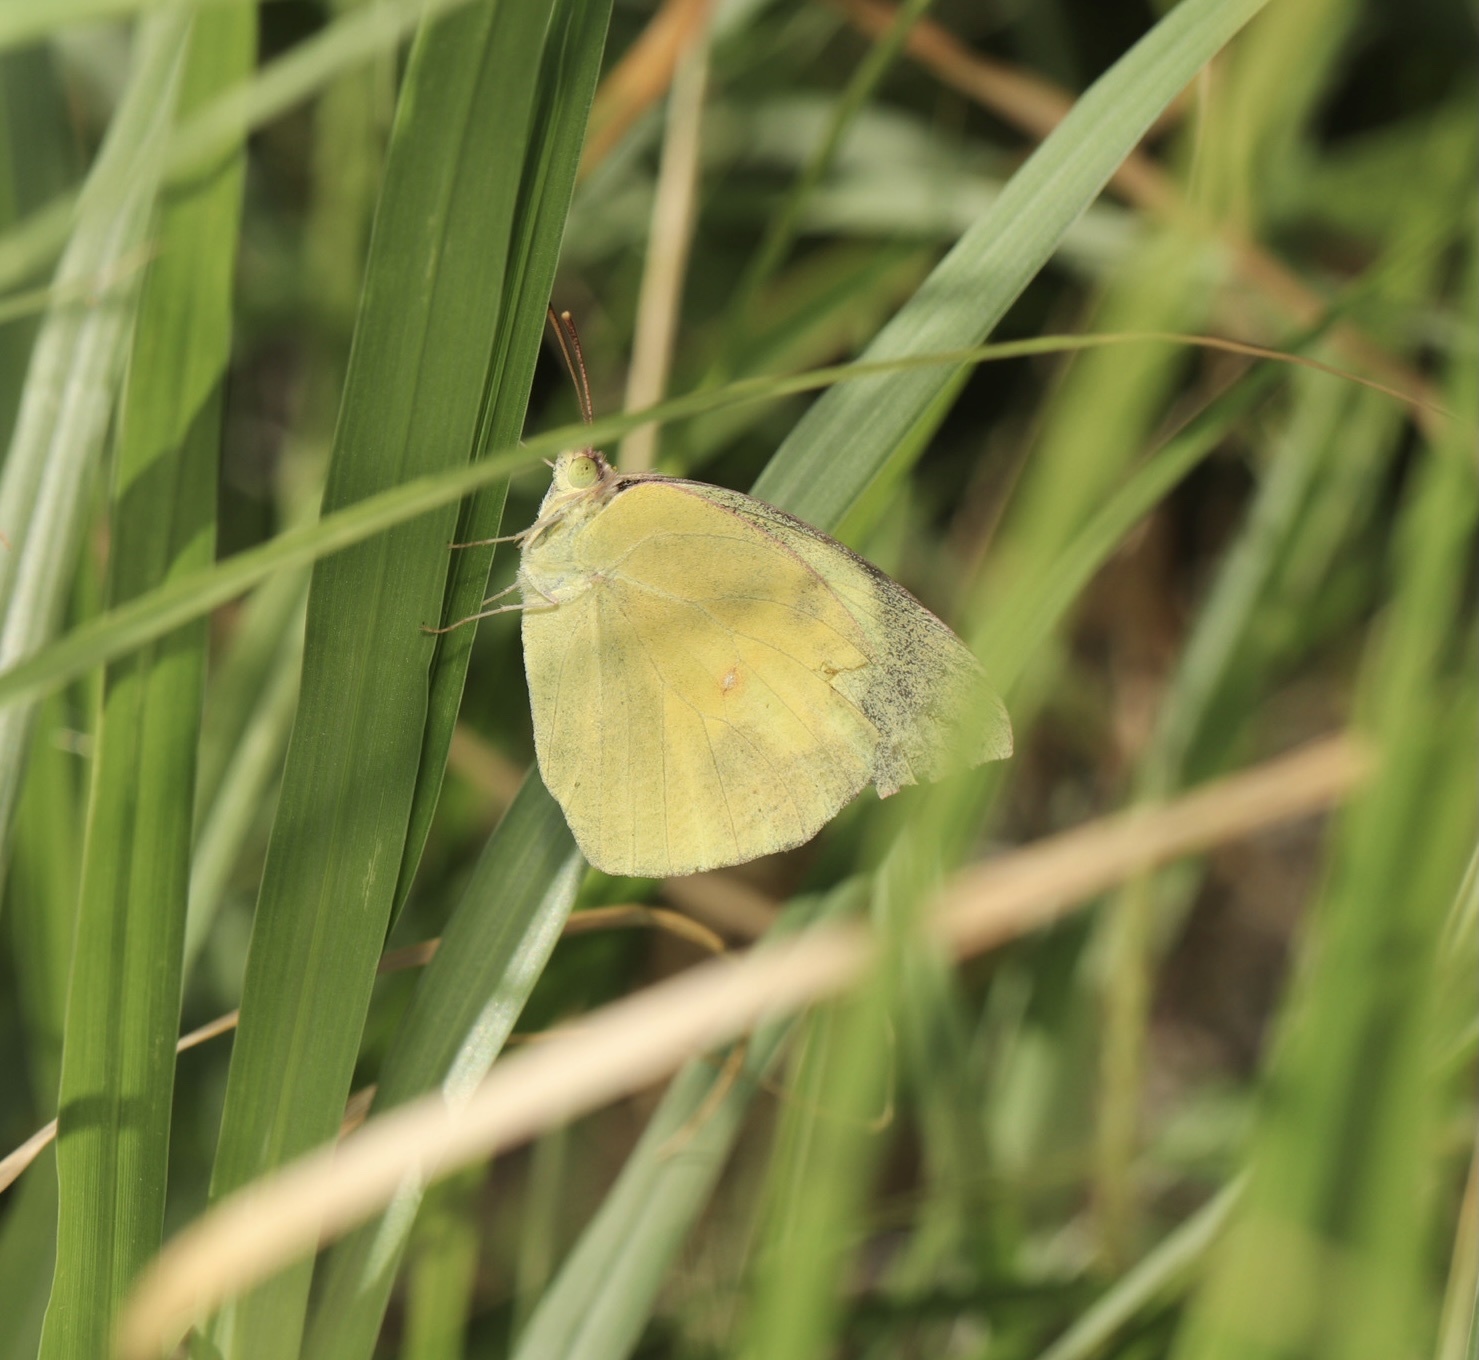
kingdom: Animalia
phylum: Arthropoda
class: Insecta
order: Lepidoptera
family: Pieridae
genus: Zerene
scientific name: Zerene cesonia
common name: Southern dogface
